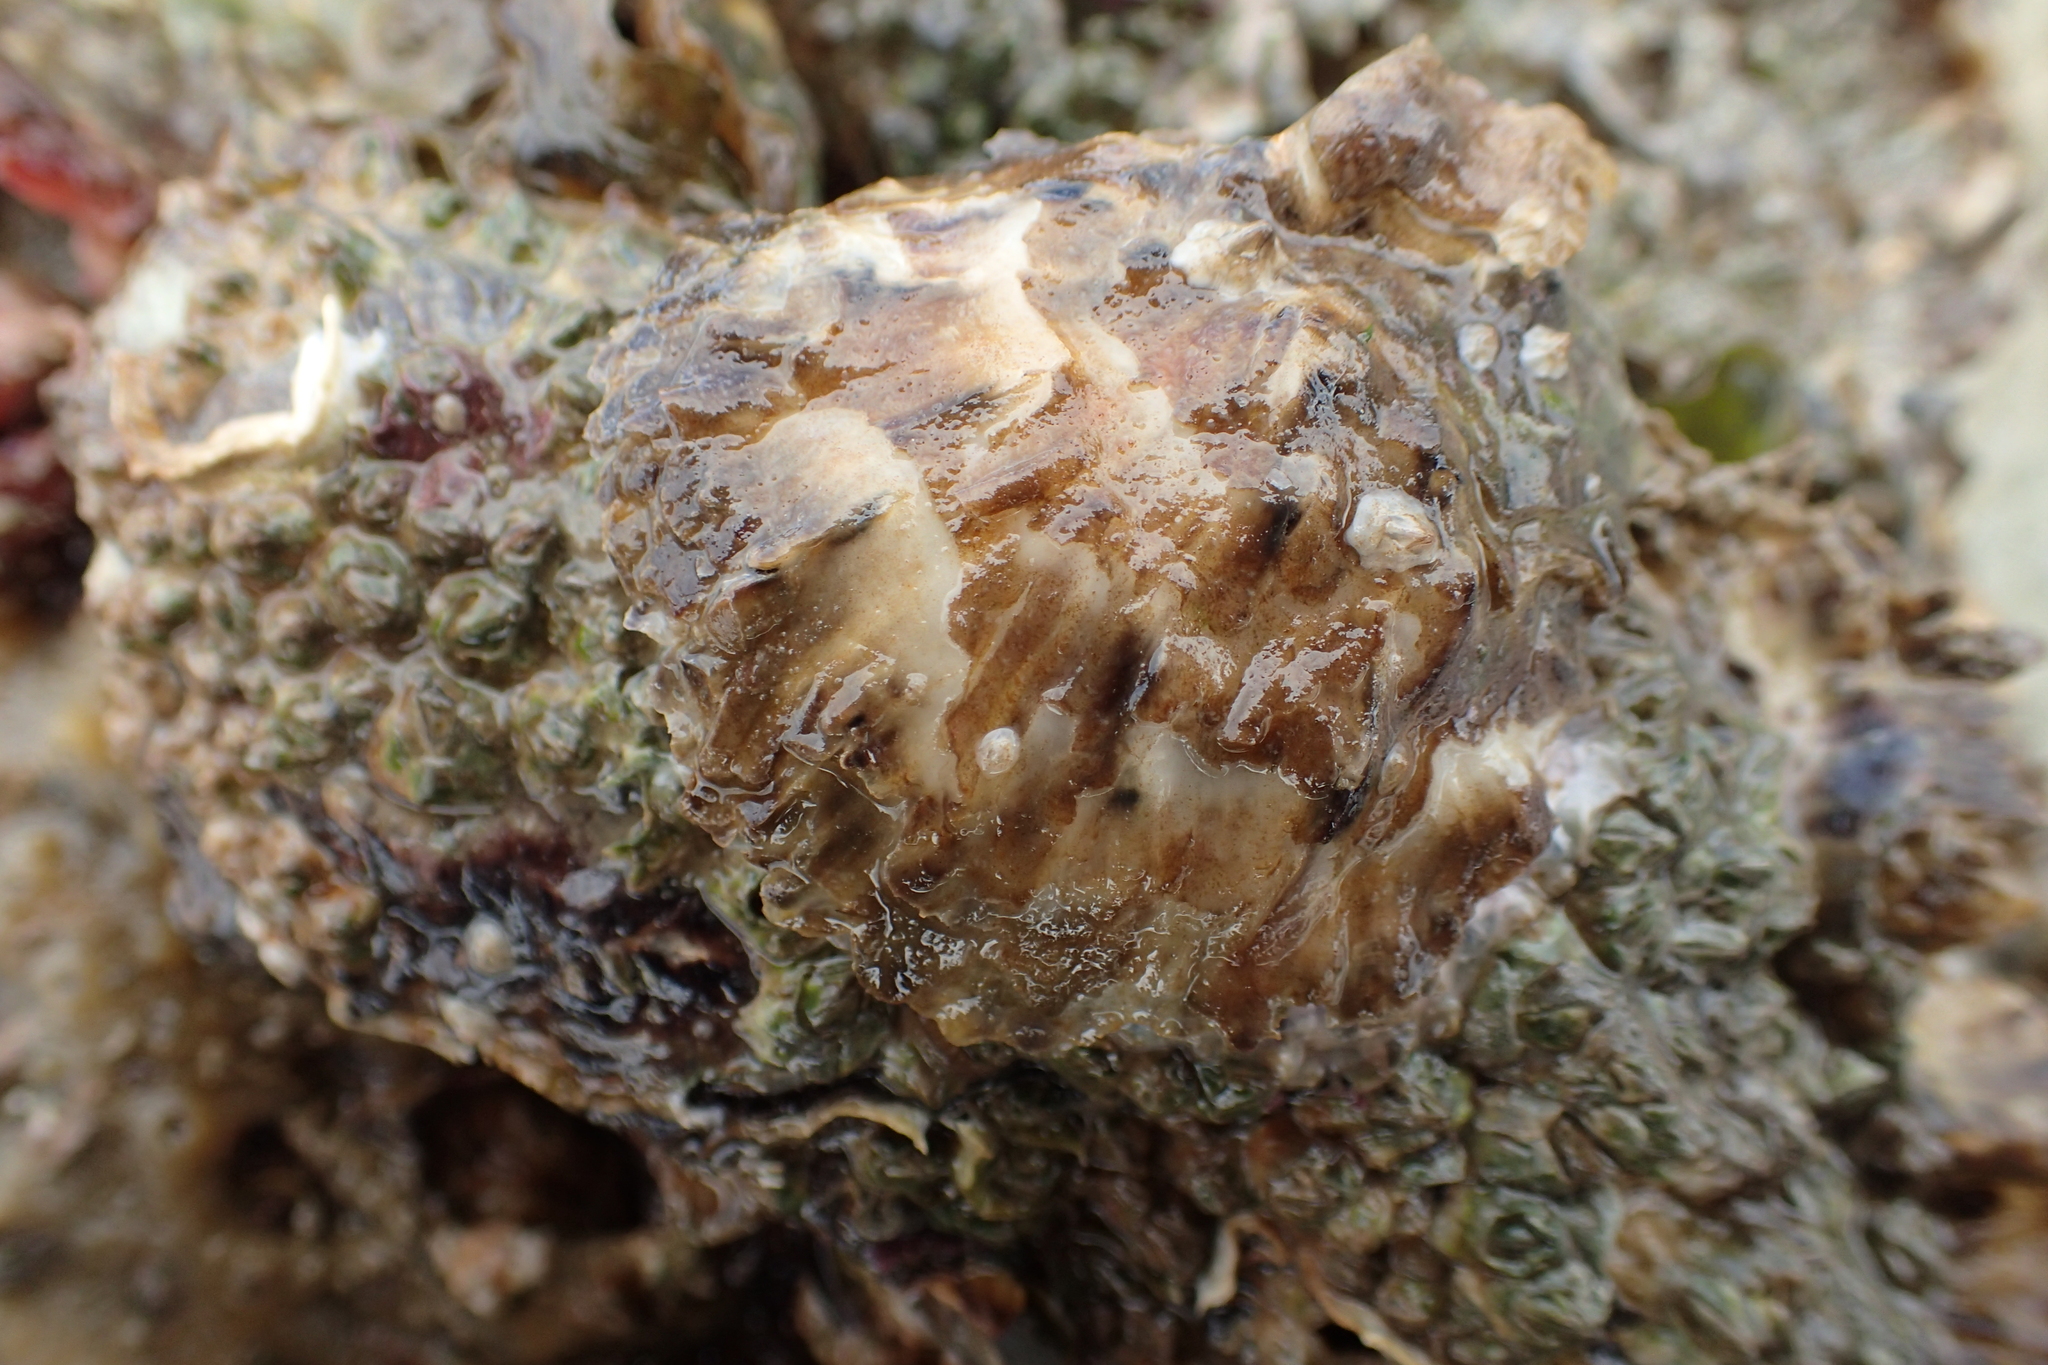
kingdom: Animalia
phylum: Mollusca
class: Bivalvia
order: Ostreida
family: Ostreidae
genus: Magallana
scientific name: Magallana gigas
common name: Pacific oyster
